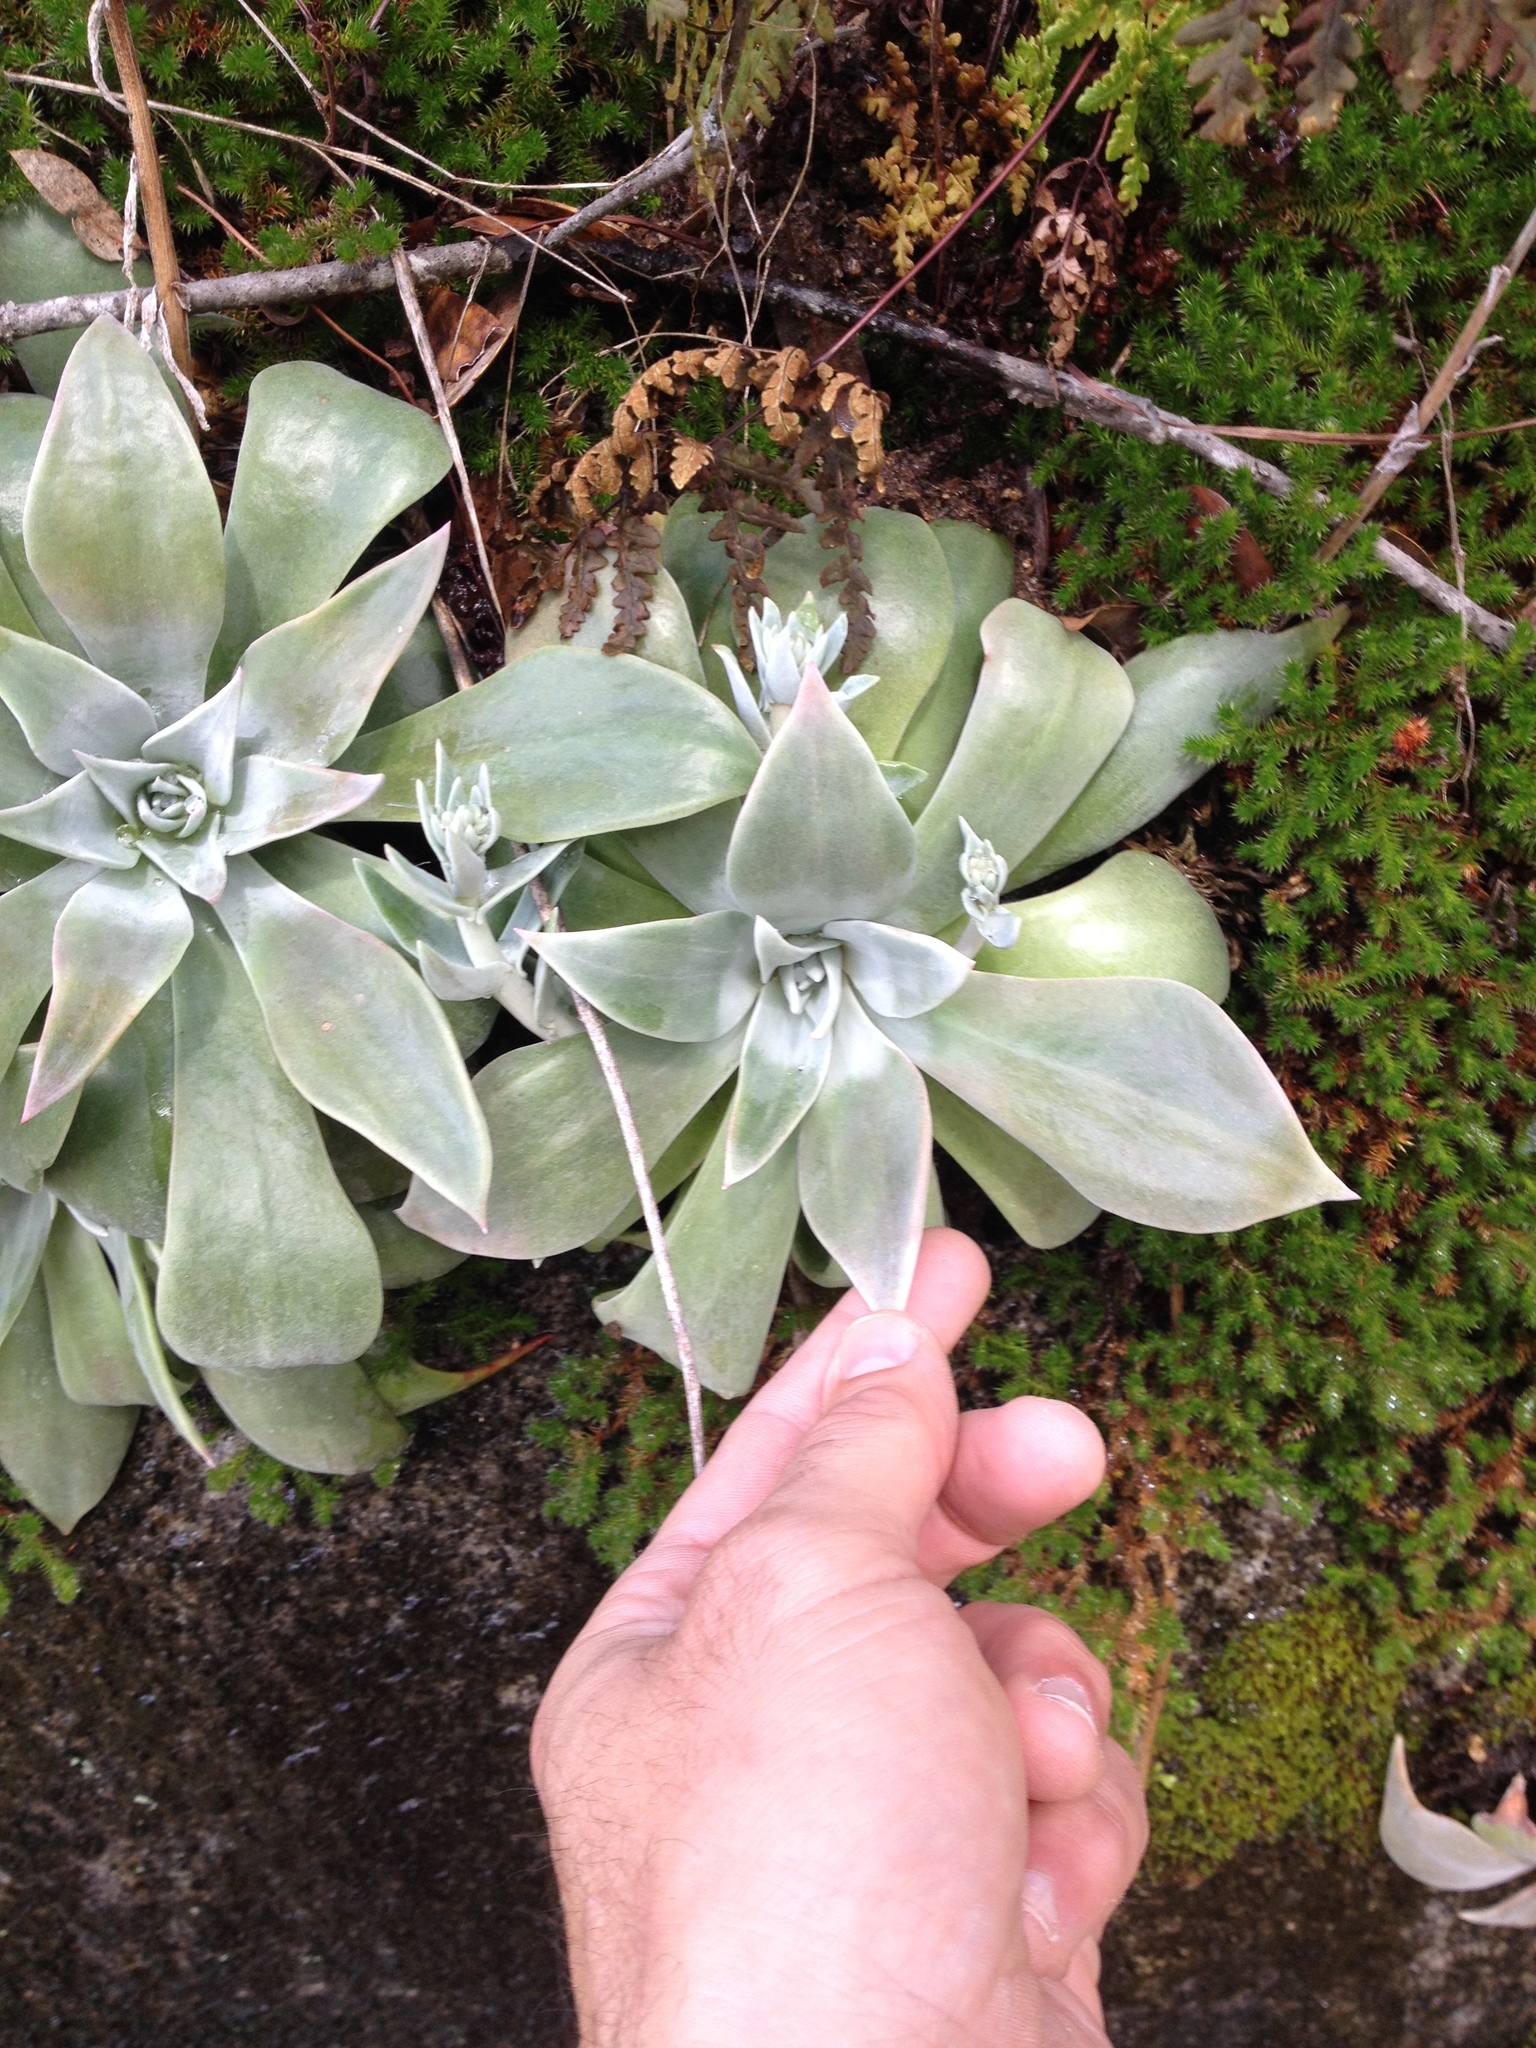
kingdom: Plantae
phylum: Tracheophyta
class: Magnoliopsida
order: Saxifragales
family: Crassulaceae
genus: Dudleya
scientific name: Dudleya cymosa
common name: Canyon dudleya
